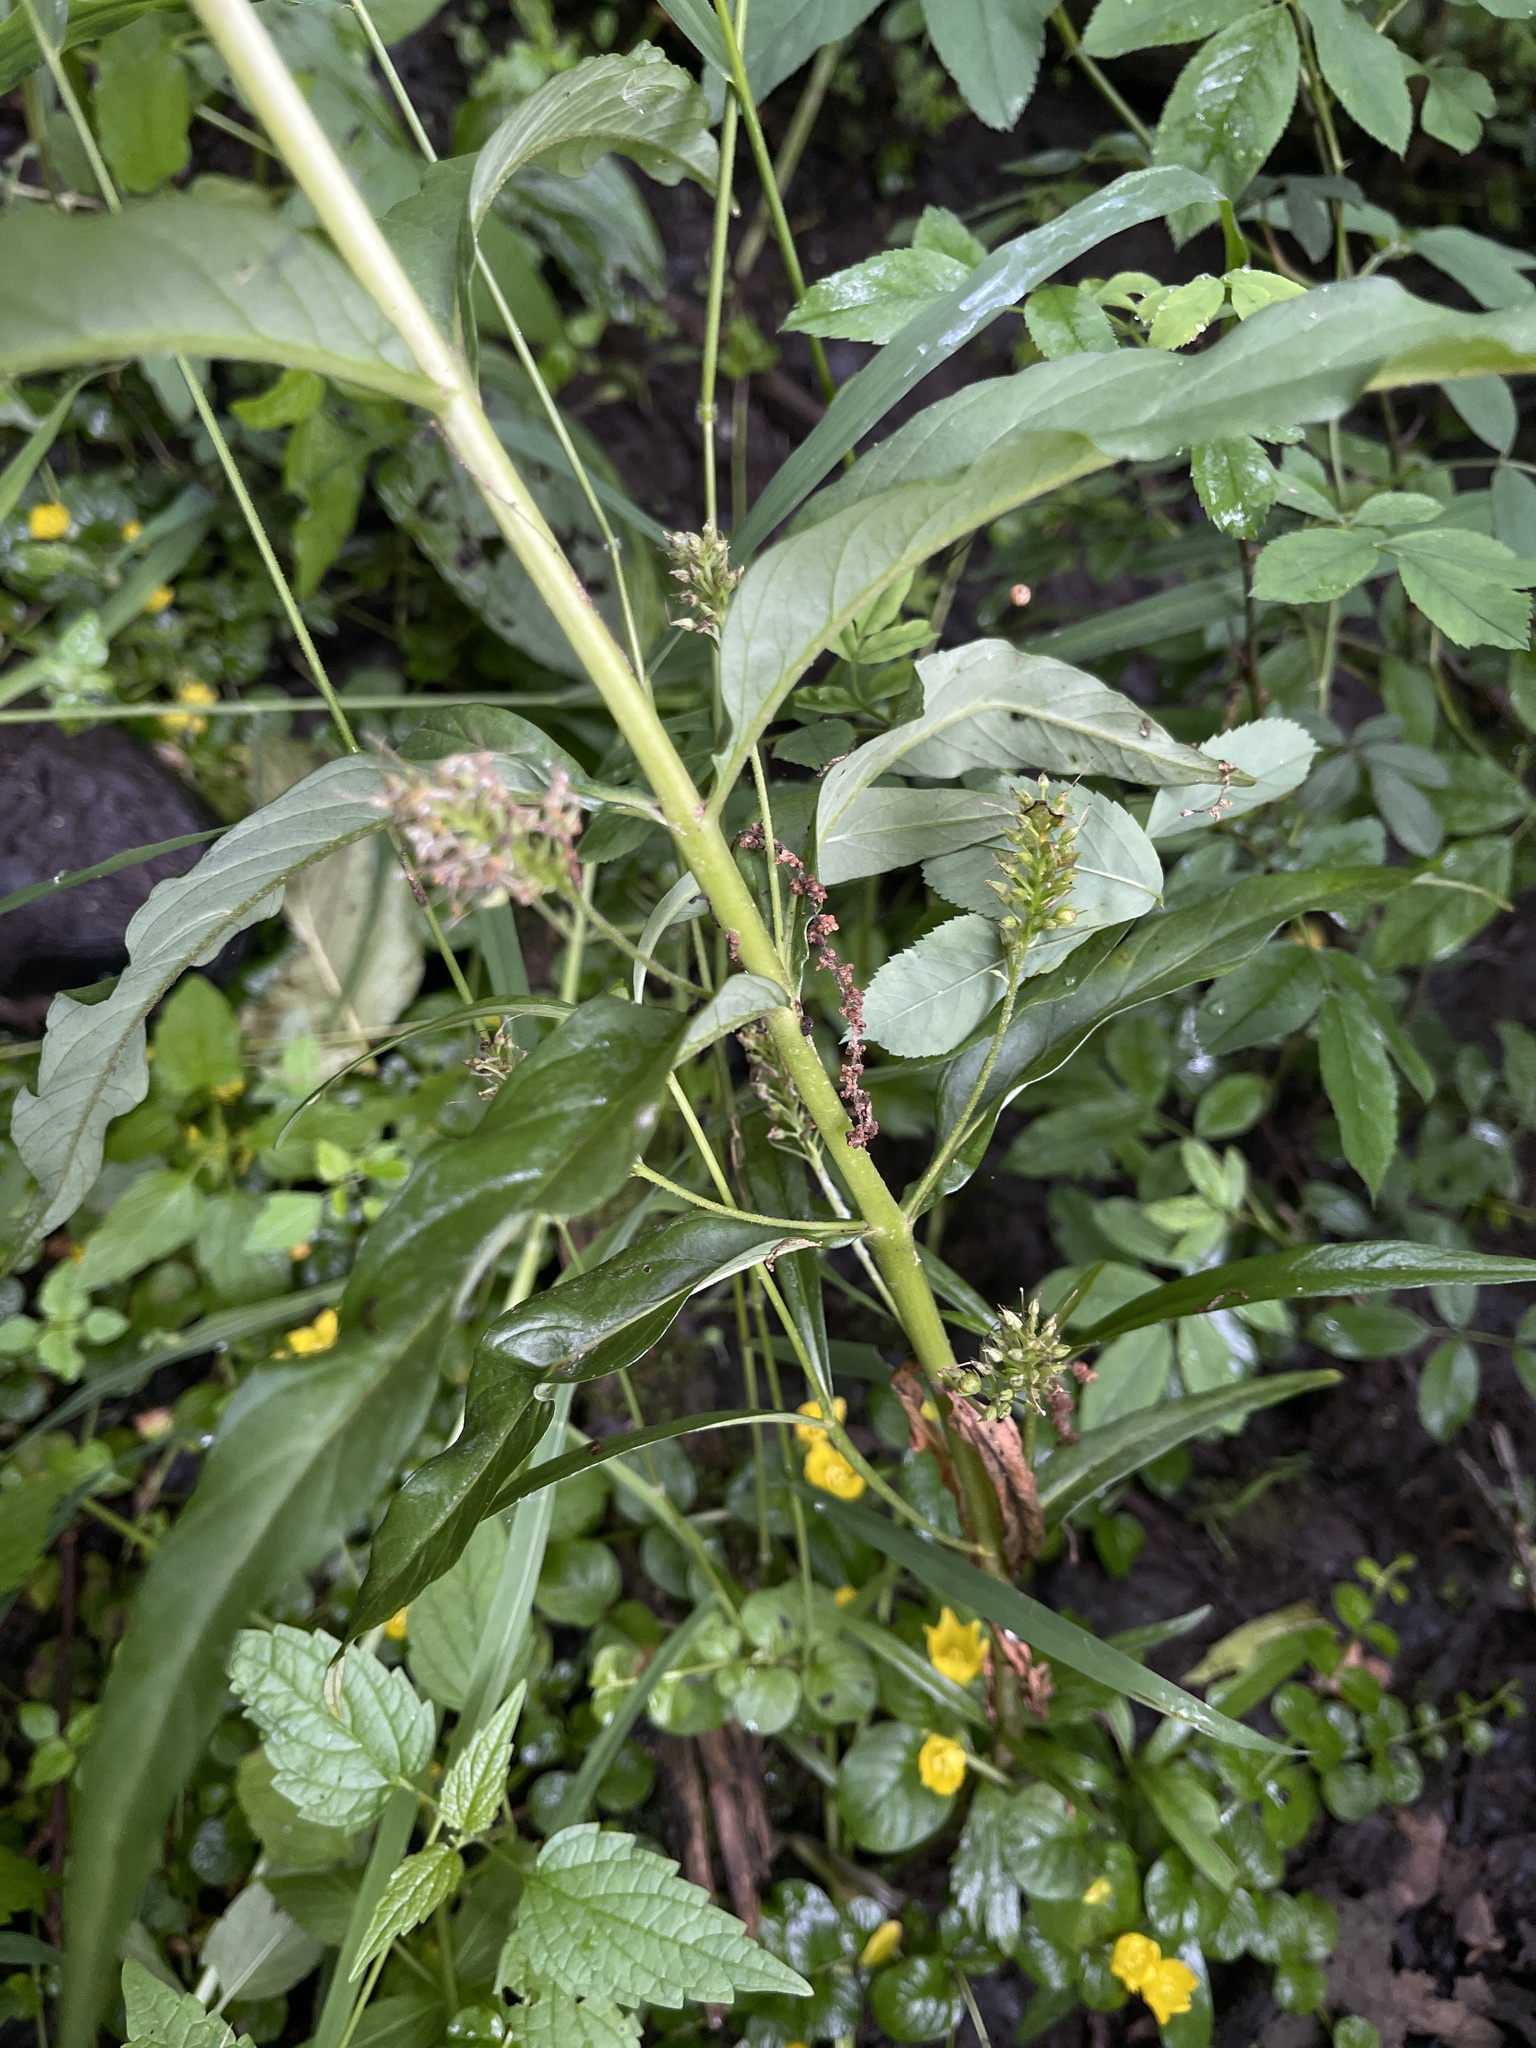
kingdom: Plantae
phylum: Tracheophyta
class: Magnoliopsida
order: Ericales
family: Primulaceae
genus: Lysimachia
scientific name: Lysimachia thyrsiflora
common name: Tufted loosestrife
